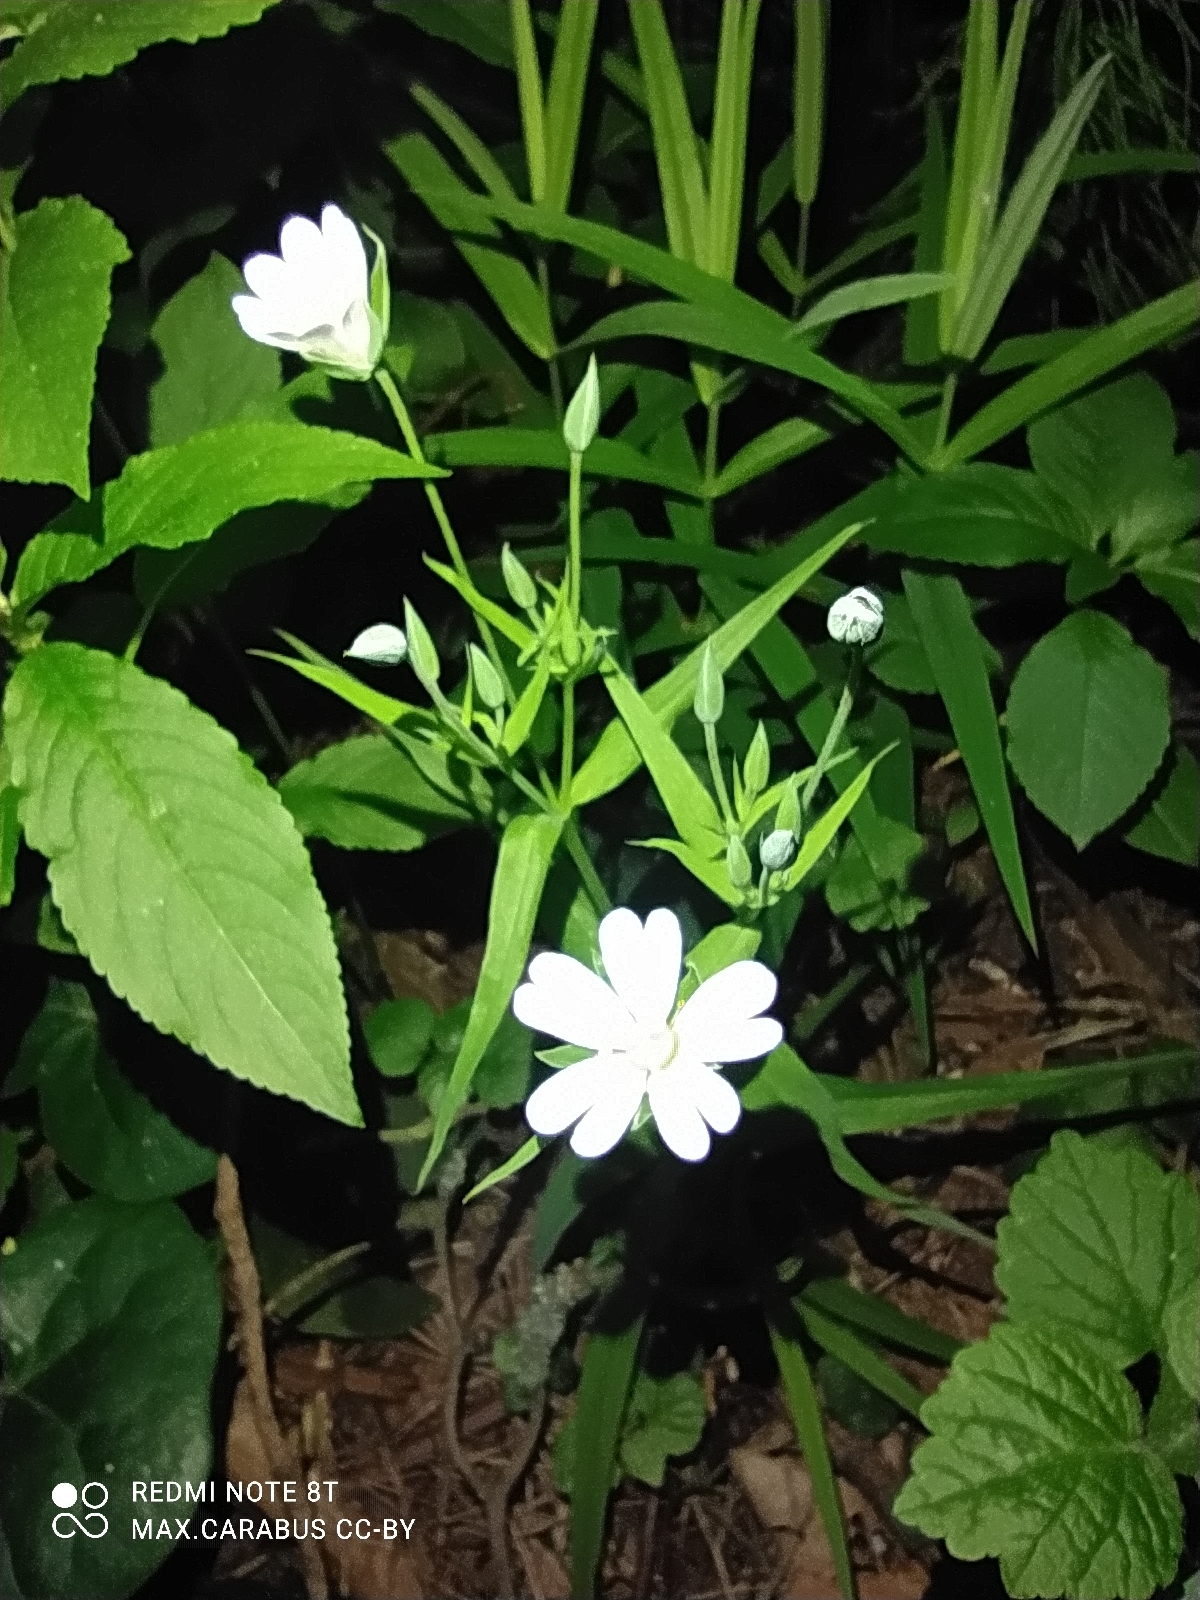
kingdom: Plantae
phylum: Tracheophyta
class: Magnoliopsida
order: Caryophyllales
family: Caryophyllaceae
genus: Rabelera
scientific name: Rabelera holostea
